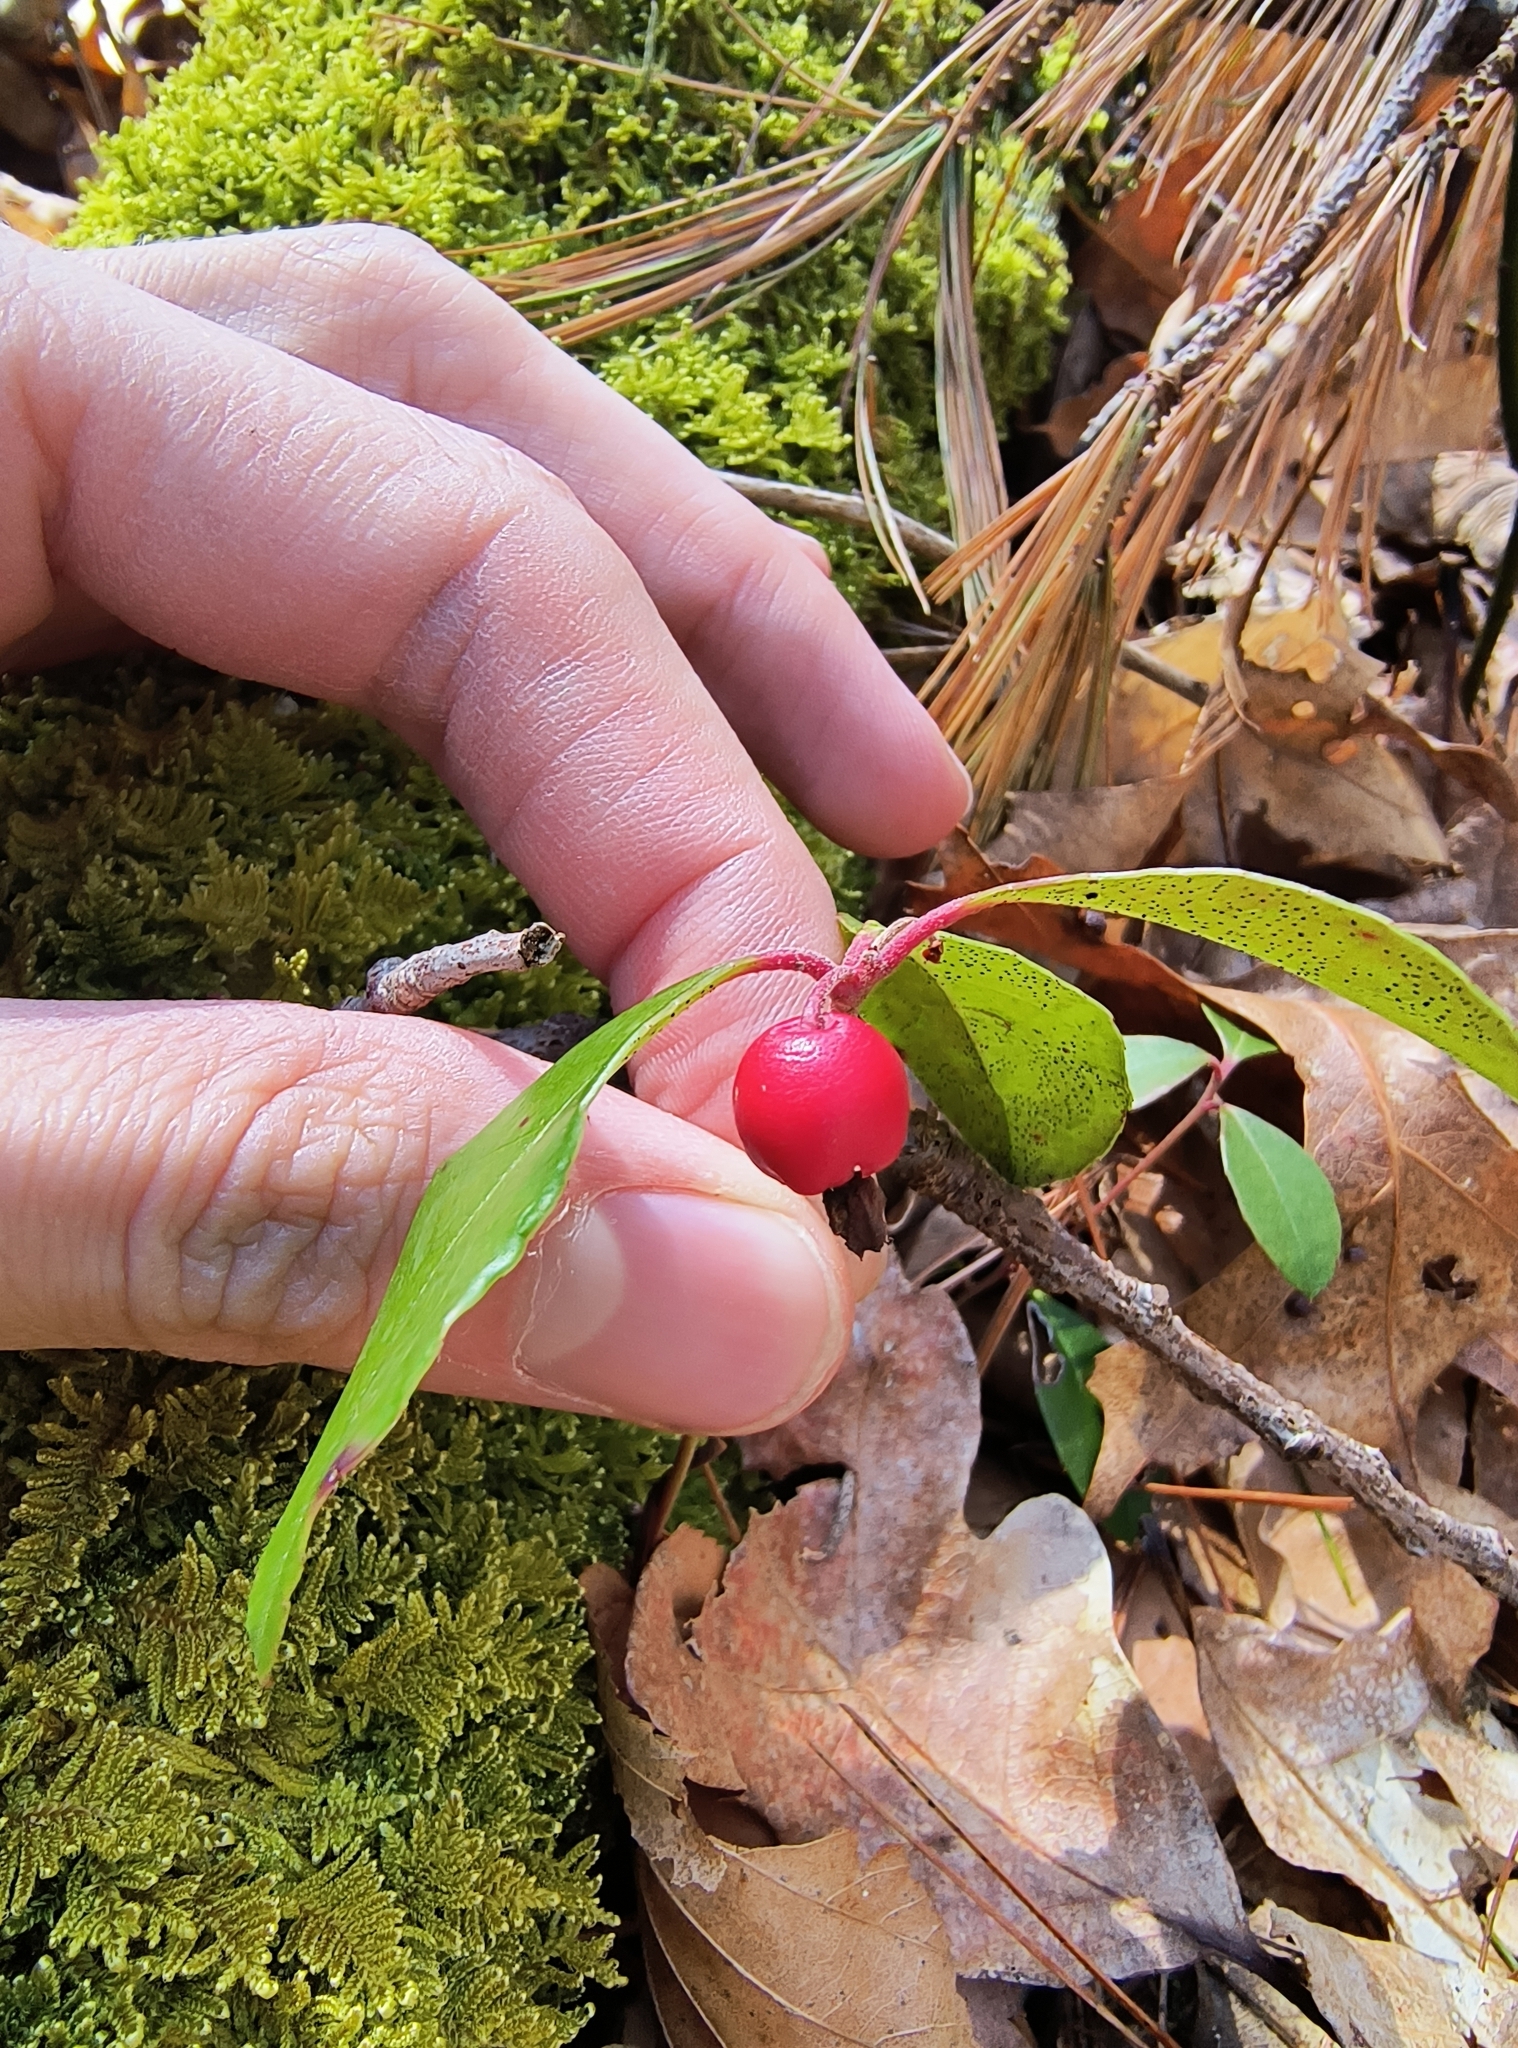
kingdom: Plantae
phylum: Tracheophyta
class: Magnoliopsida
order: Ericales
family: Ericaceae
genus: Gaultheria
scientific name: Gaultheria procumbens
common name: Checkerberry
